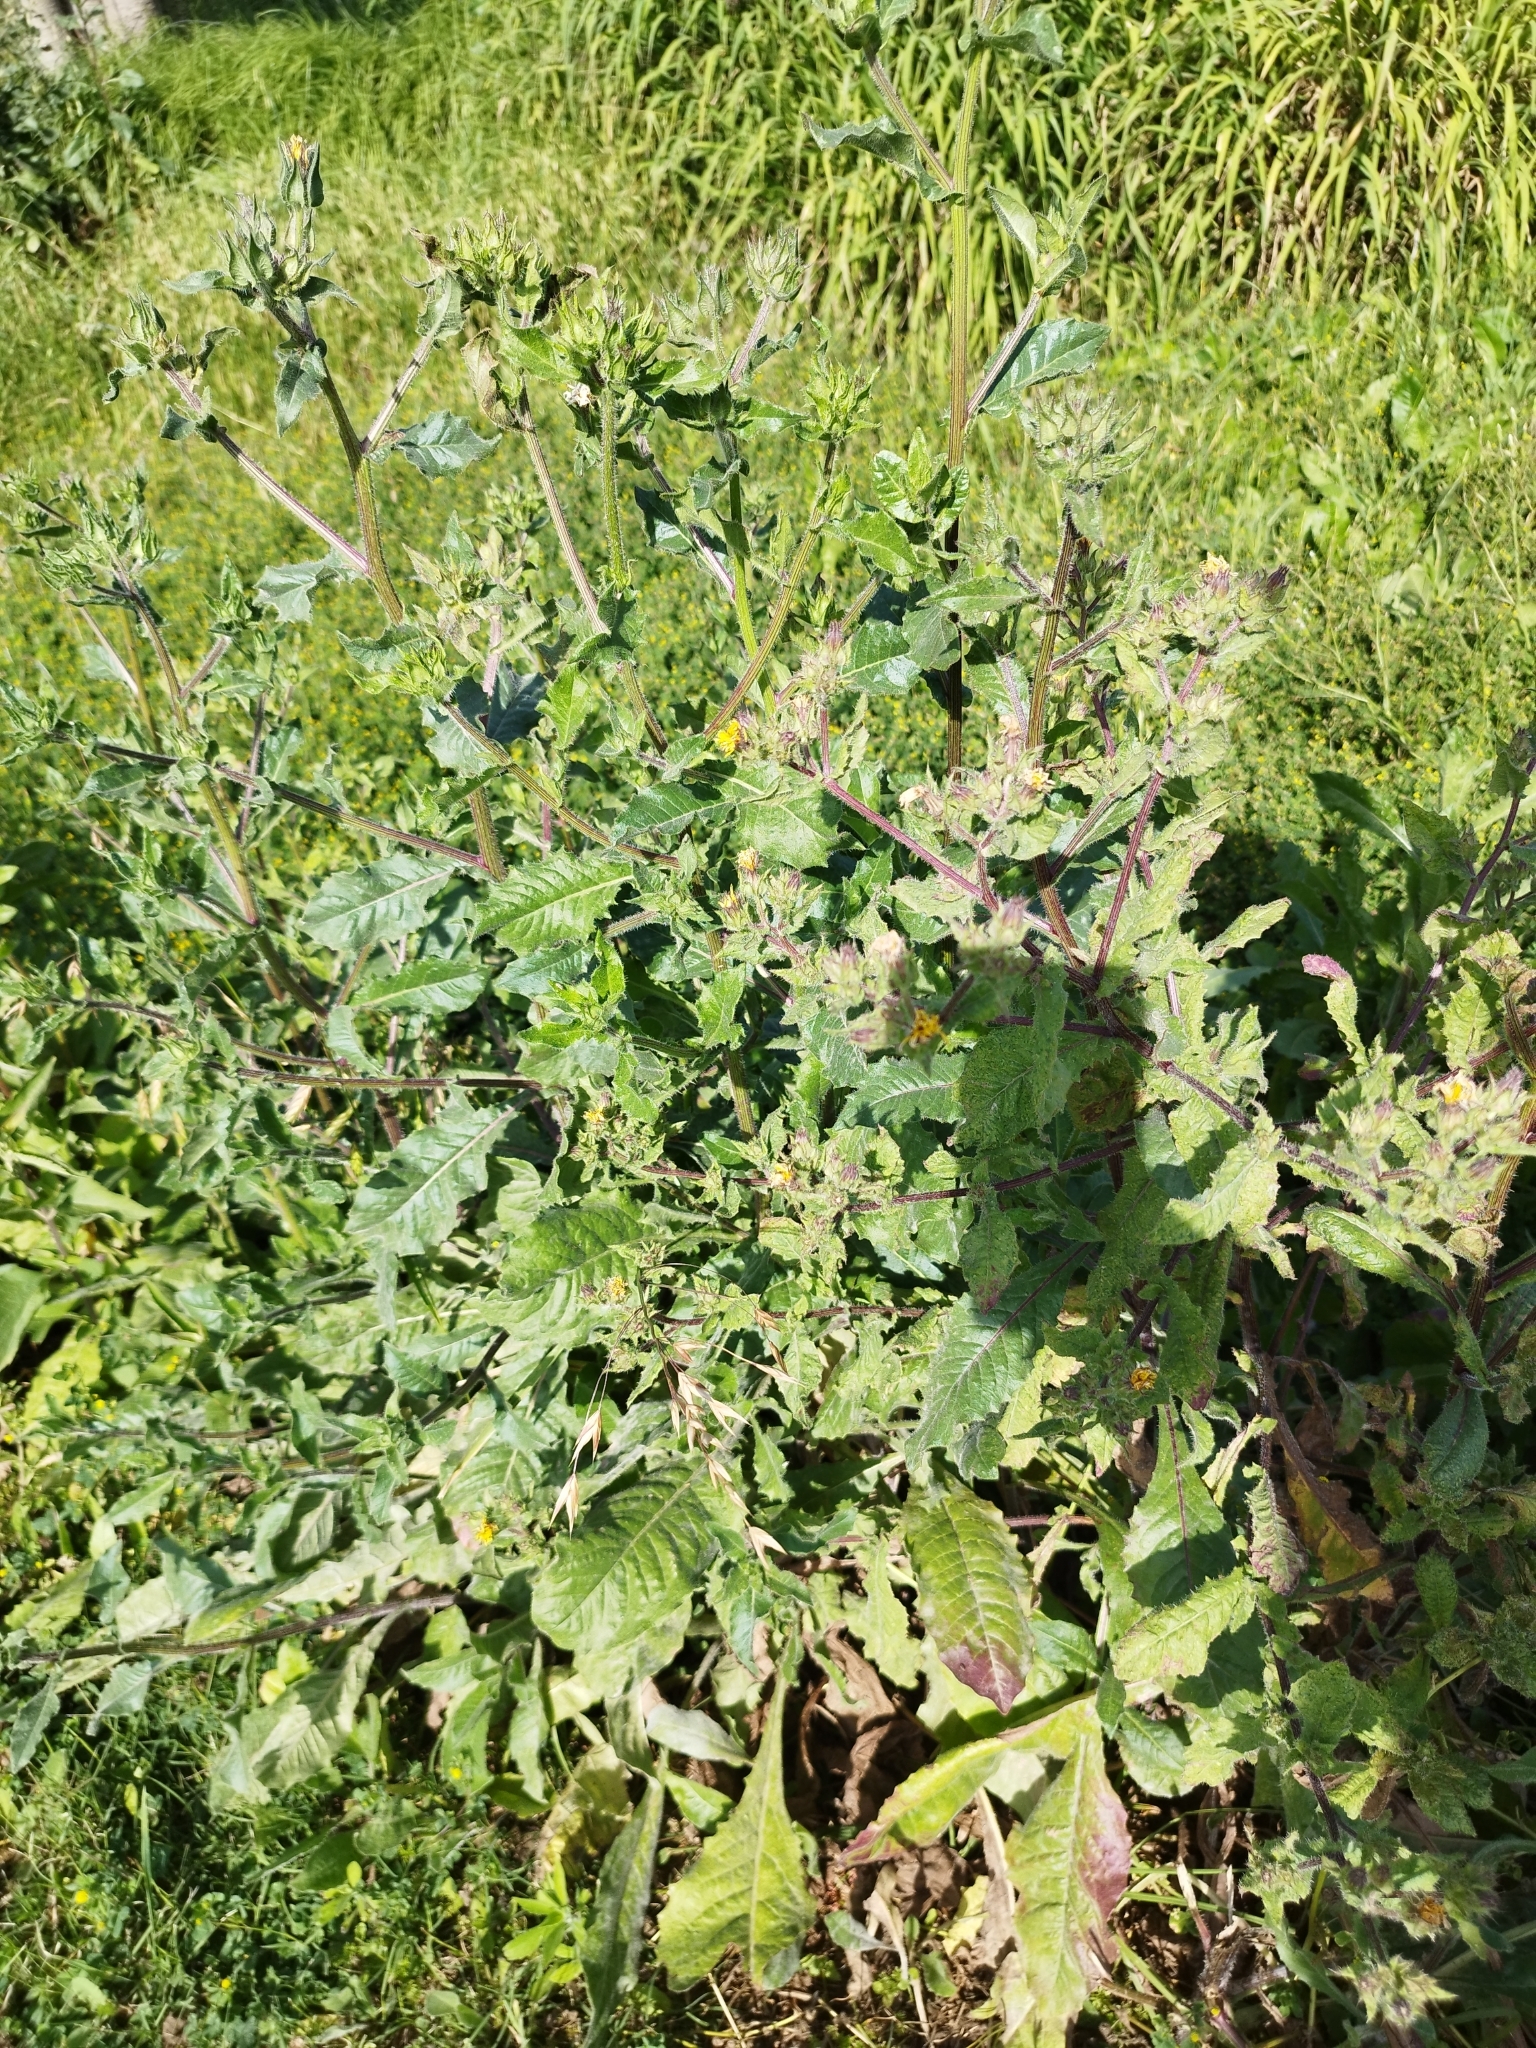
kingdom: Plantae
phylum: Tracheophyta
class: Magnoliopsida
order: Asterales
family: Asteraceae
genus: Helminthotheca
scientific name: Helminthotheca echioides
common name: Ox-tongue
